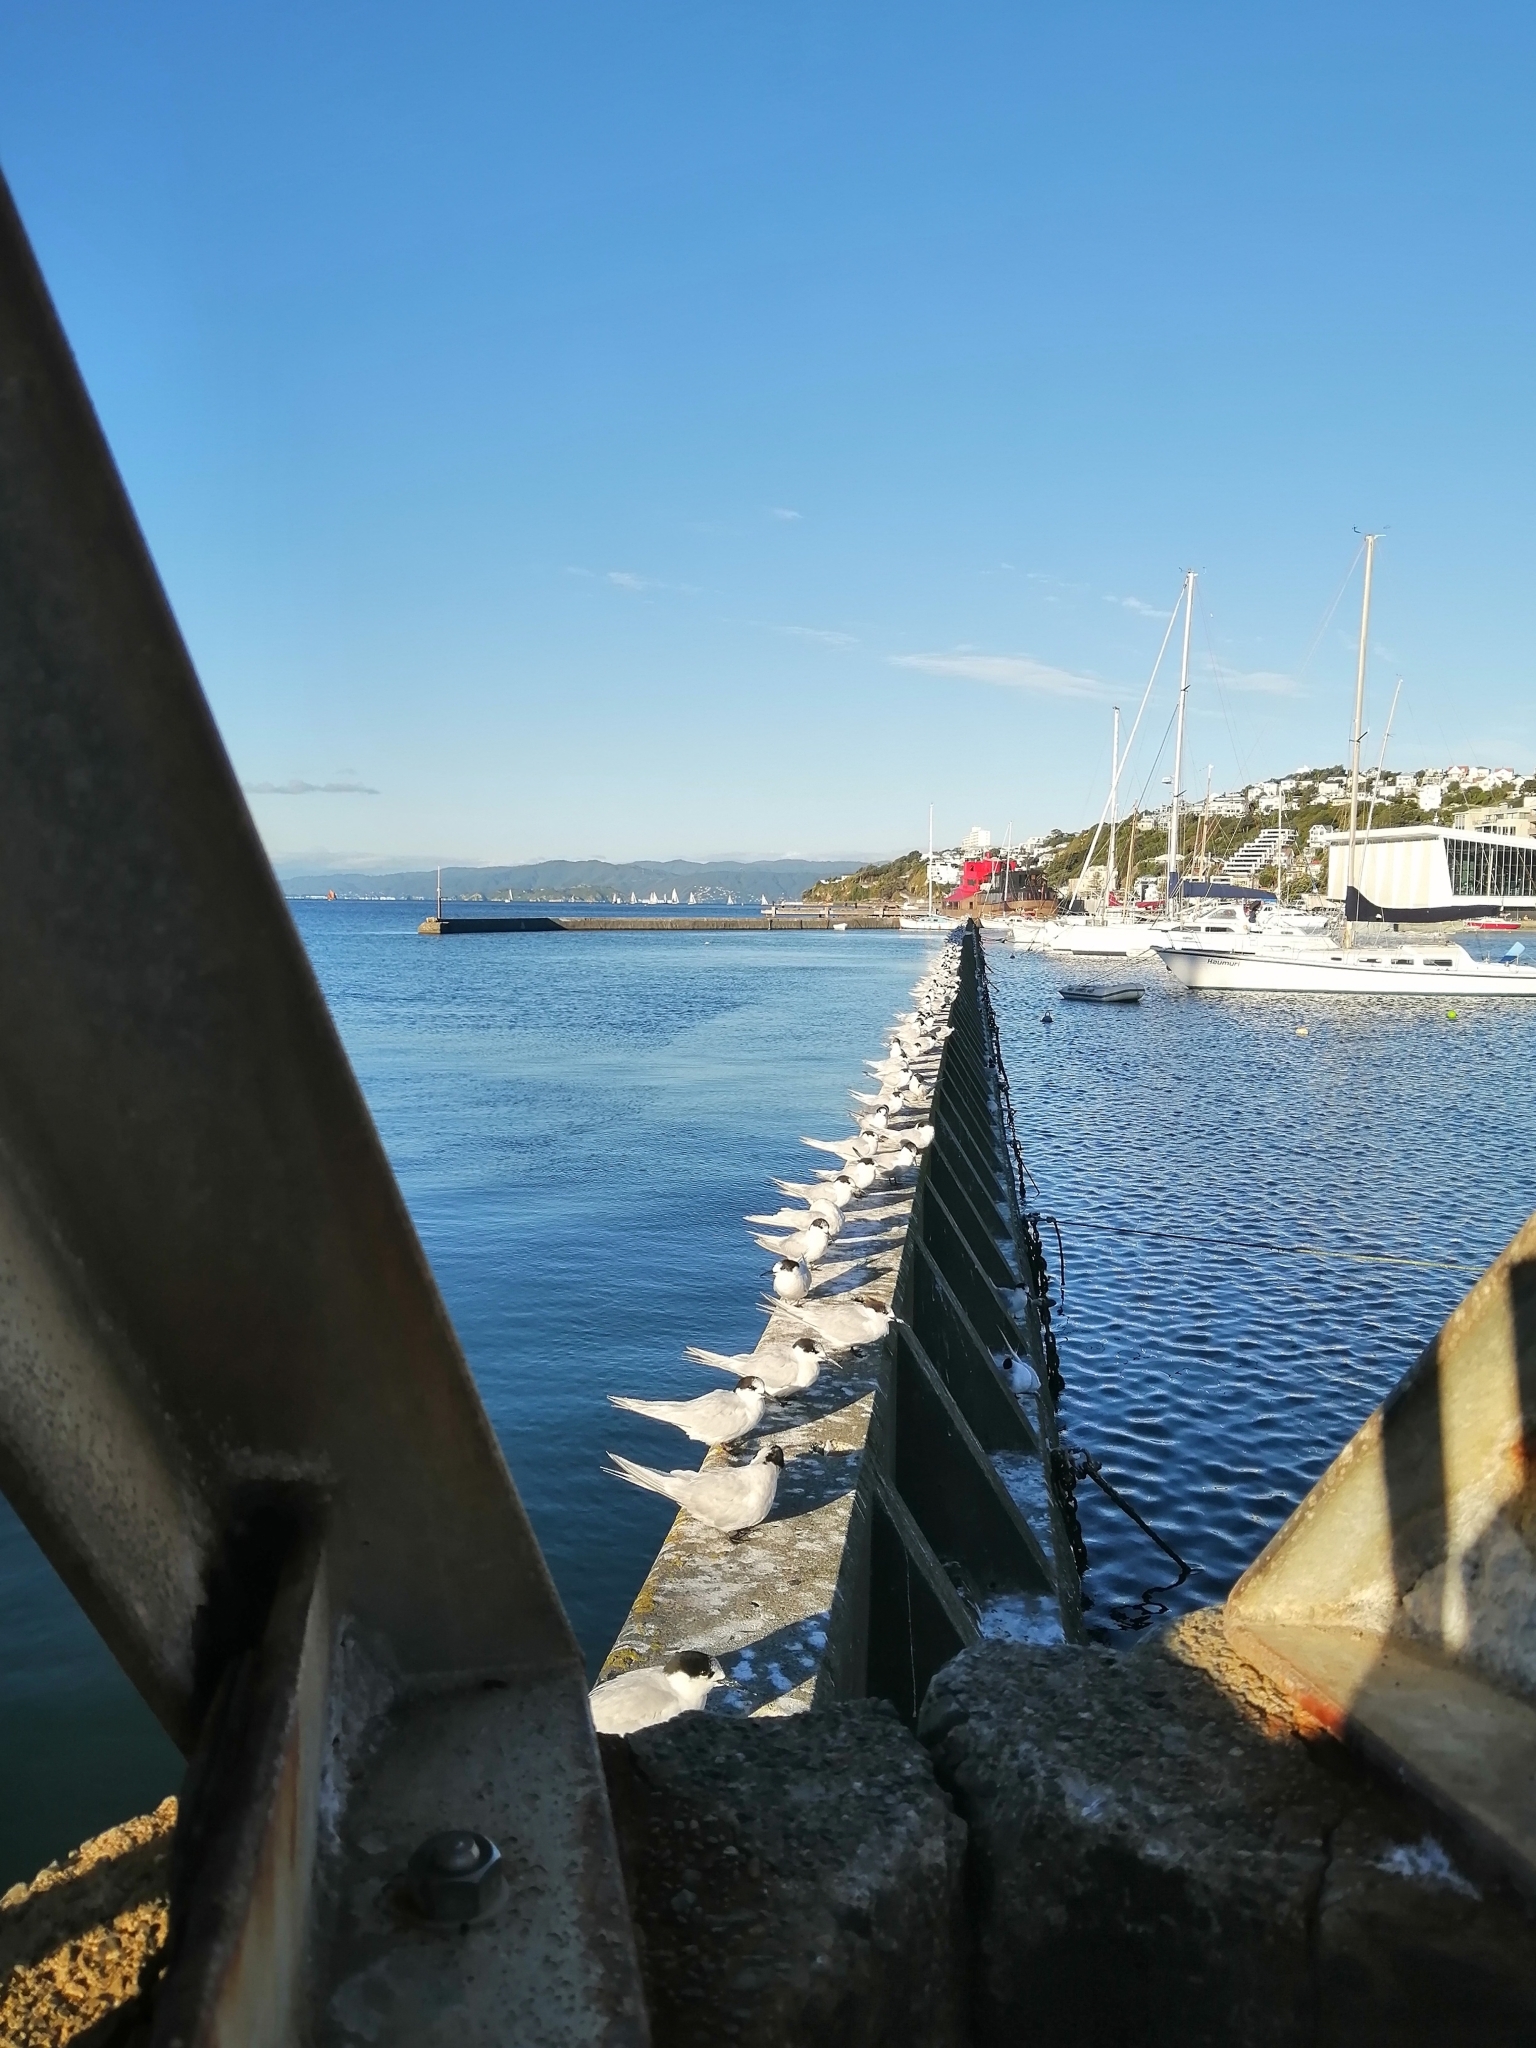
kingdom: Animalia
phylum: Chordata
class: Aves
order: Charadriiformes
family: Laridae
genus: Sterna
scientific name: Sterna striata
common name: White-fronted tern
